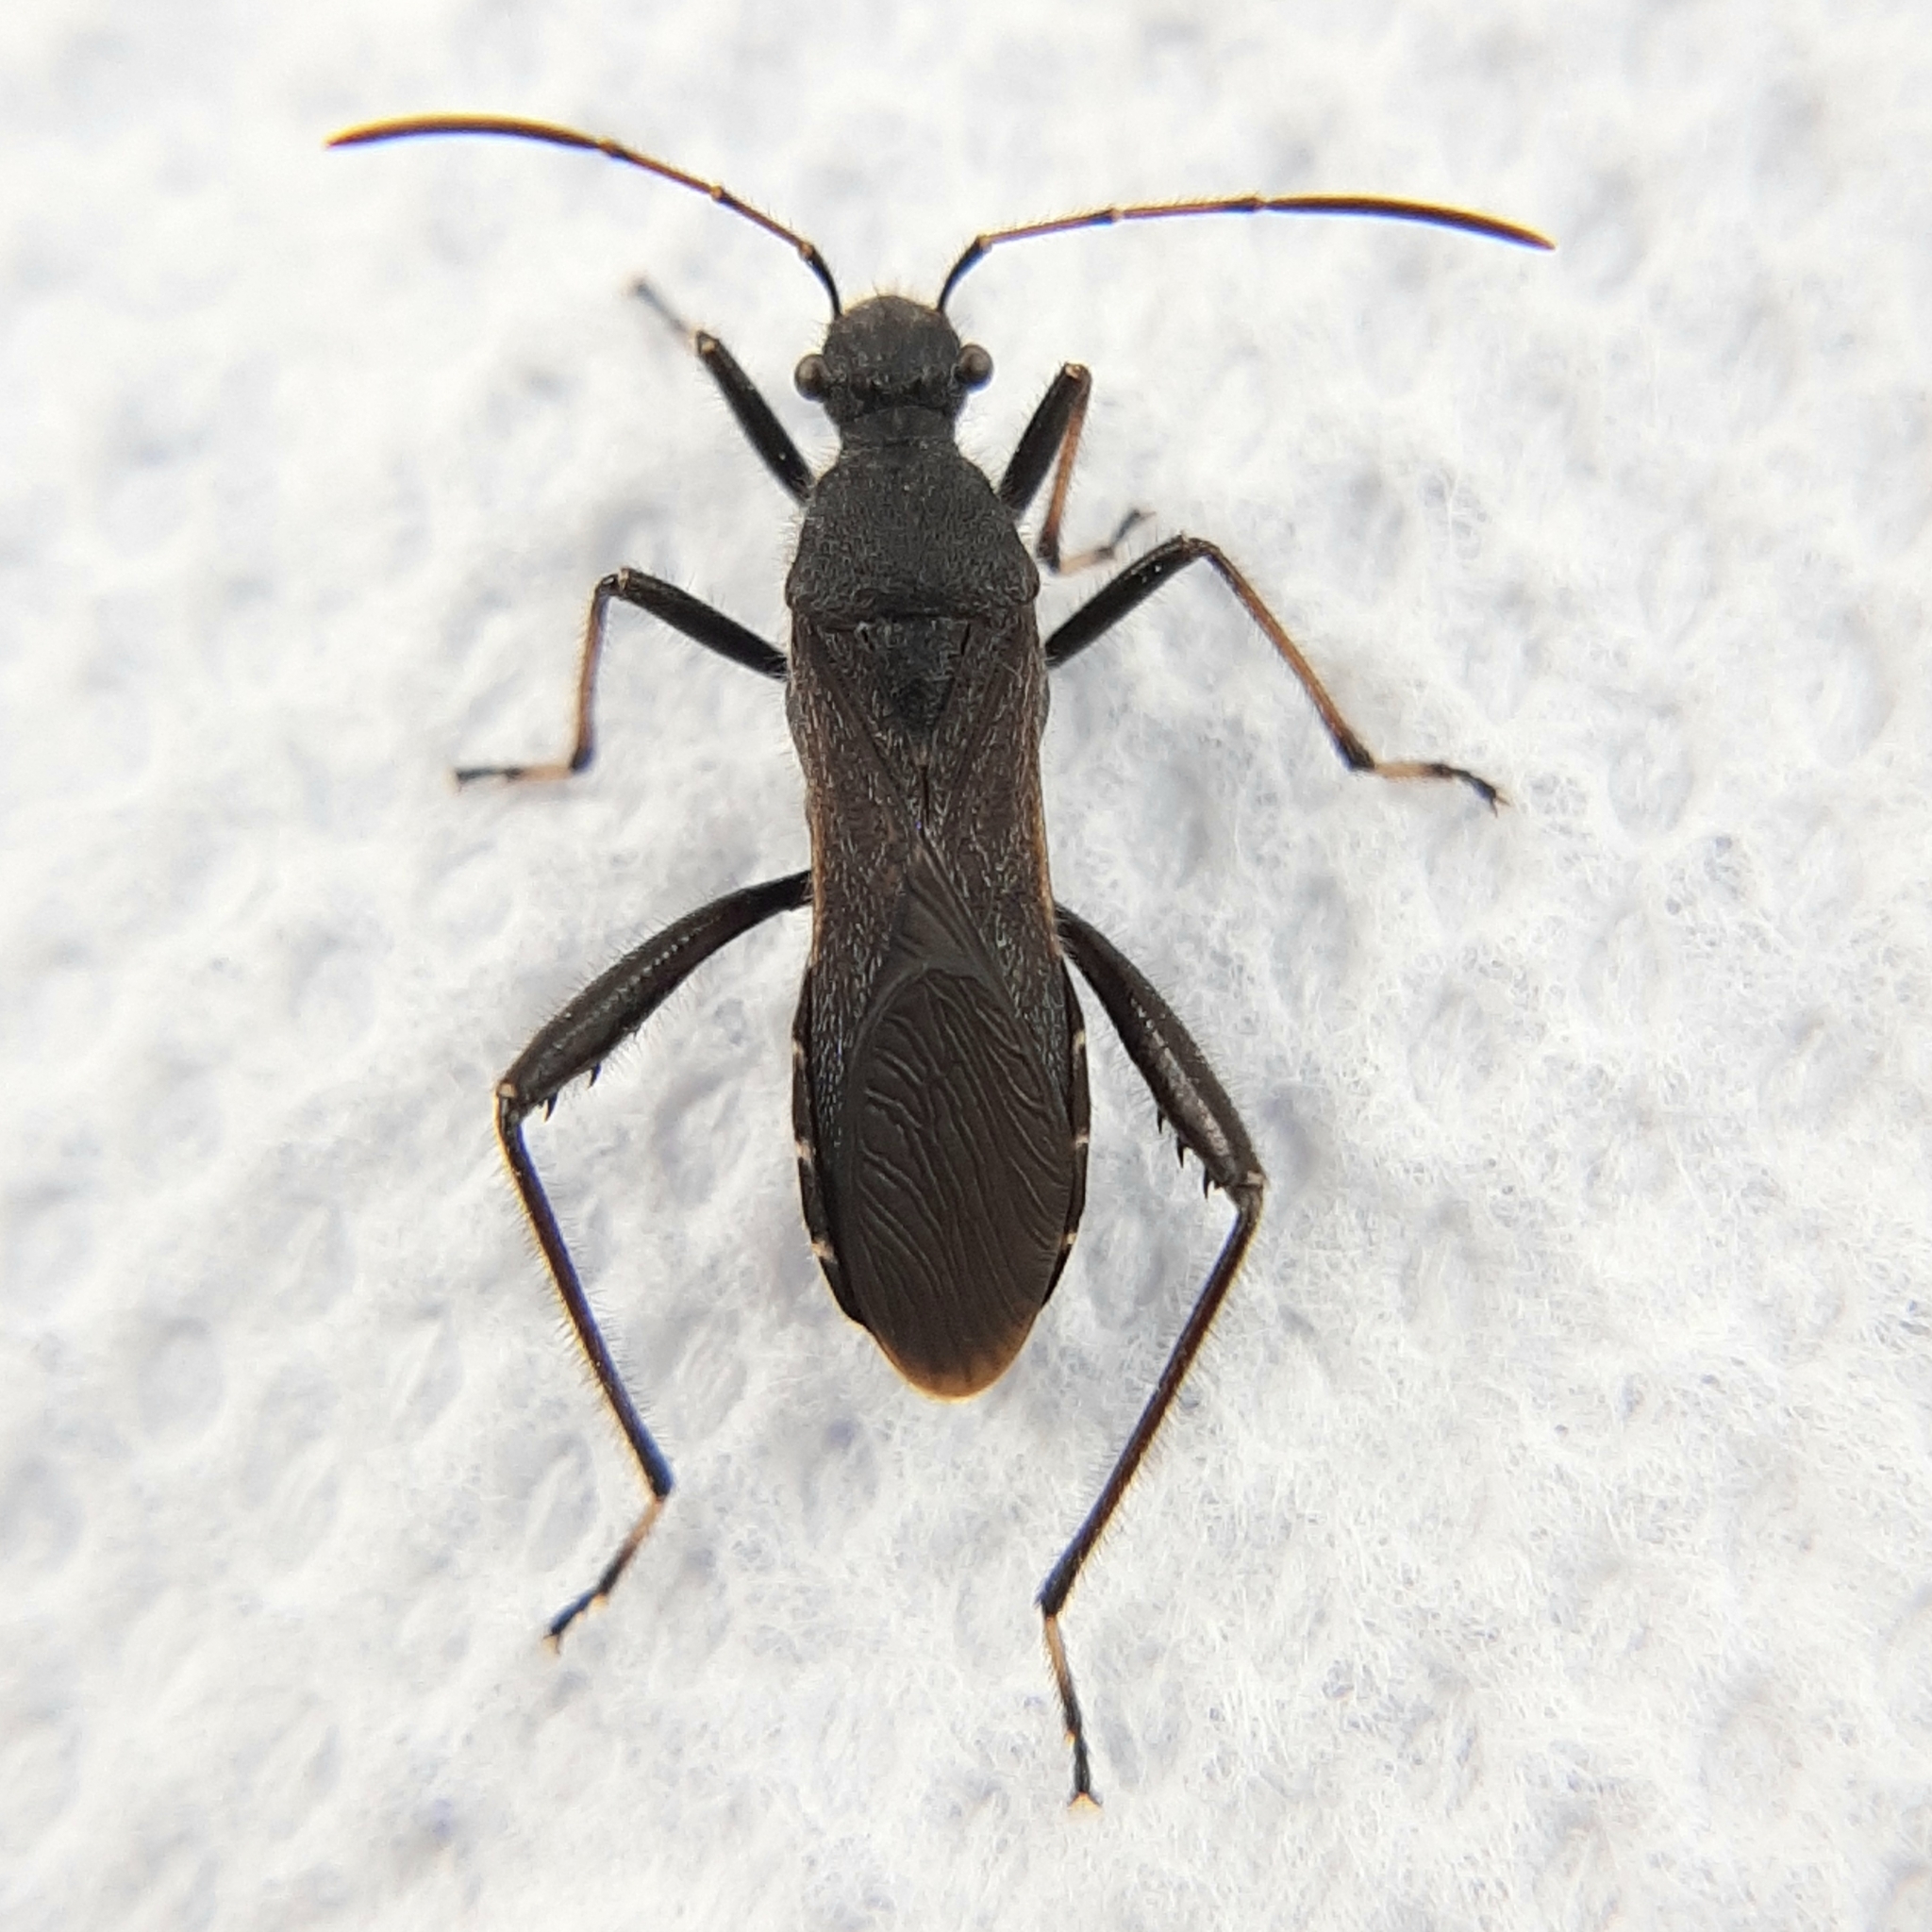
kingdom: Animalia
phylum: Arthropoda
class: Insecta
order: Hemiptera
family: Alydidae
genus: Alydus
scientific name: Alydus eurinus
